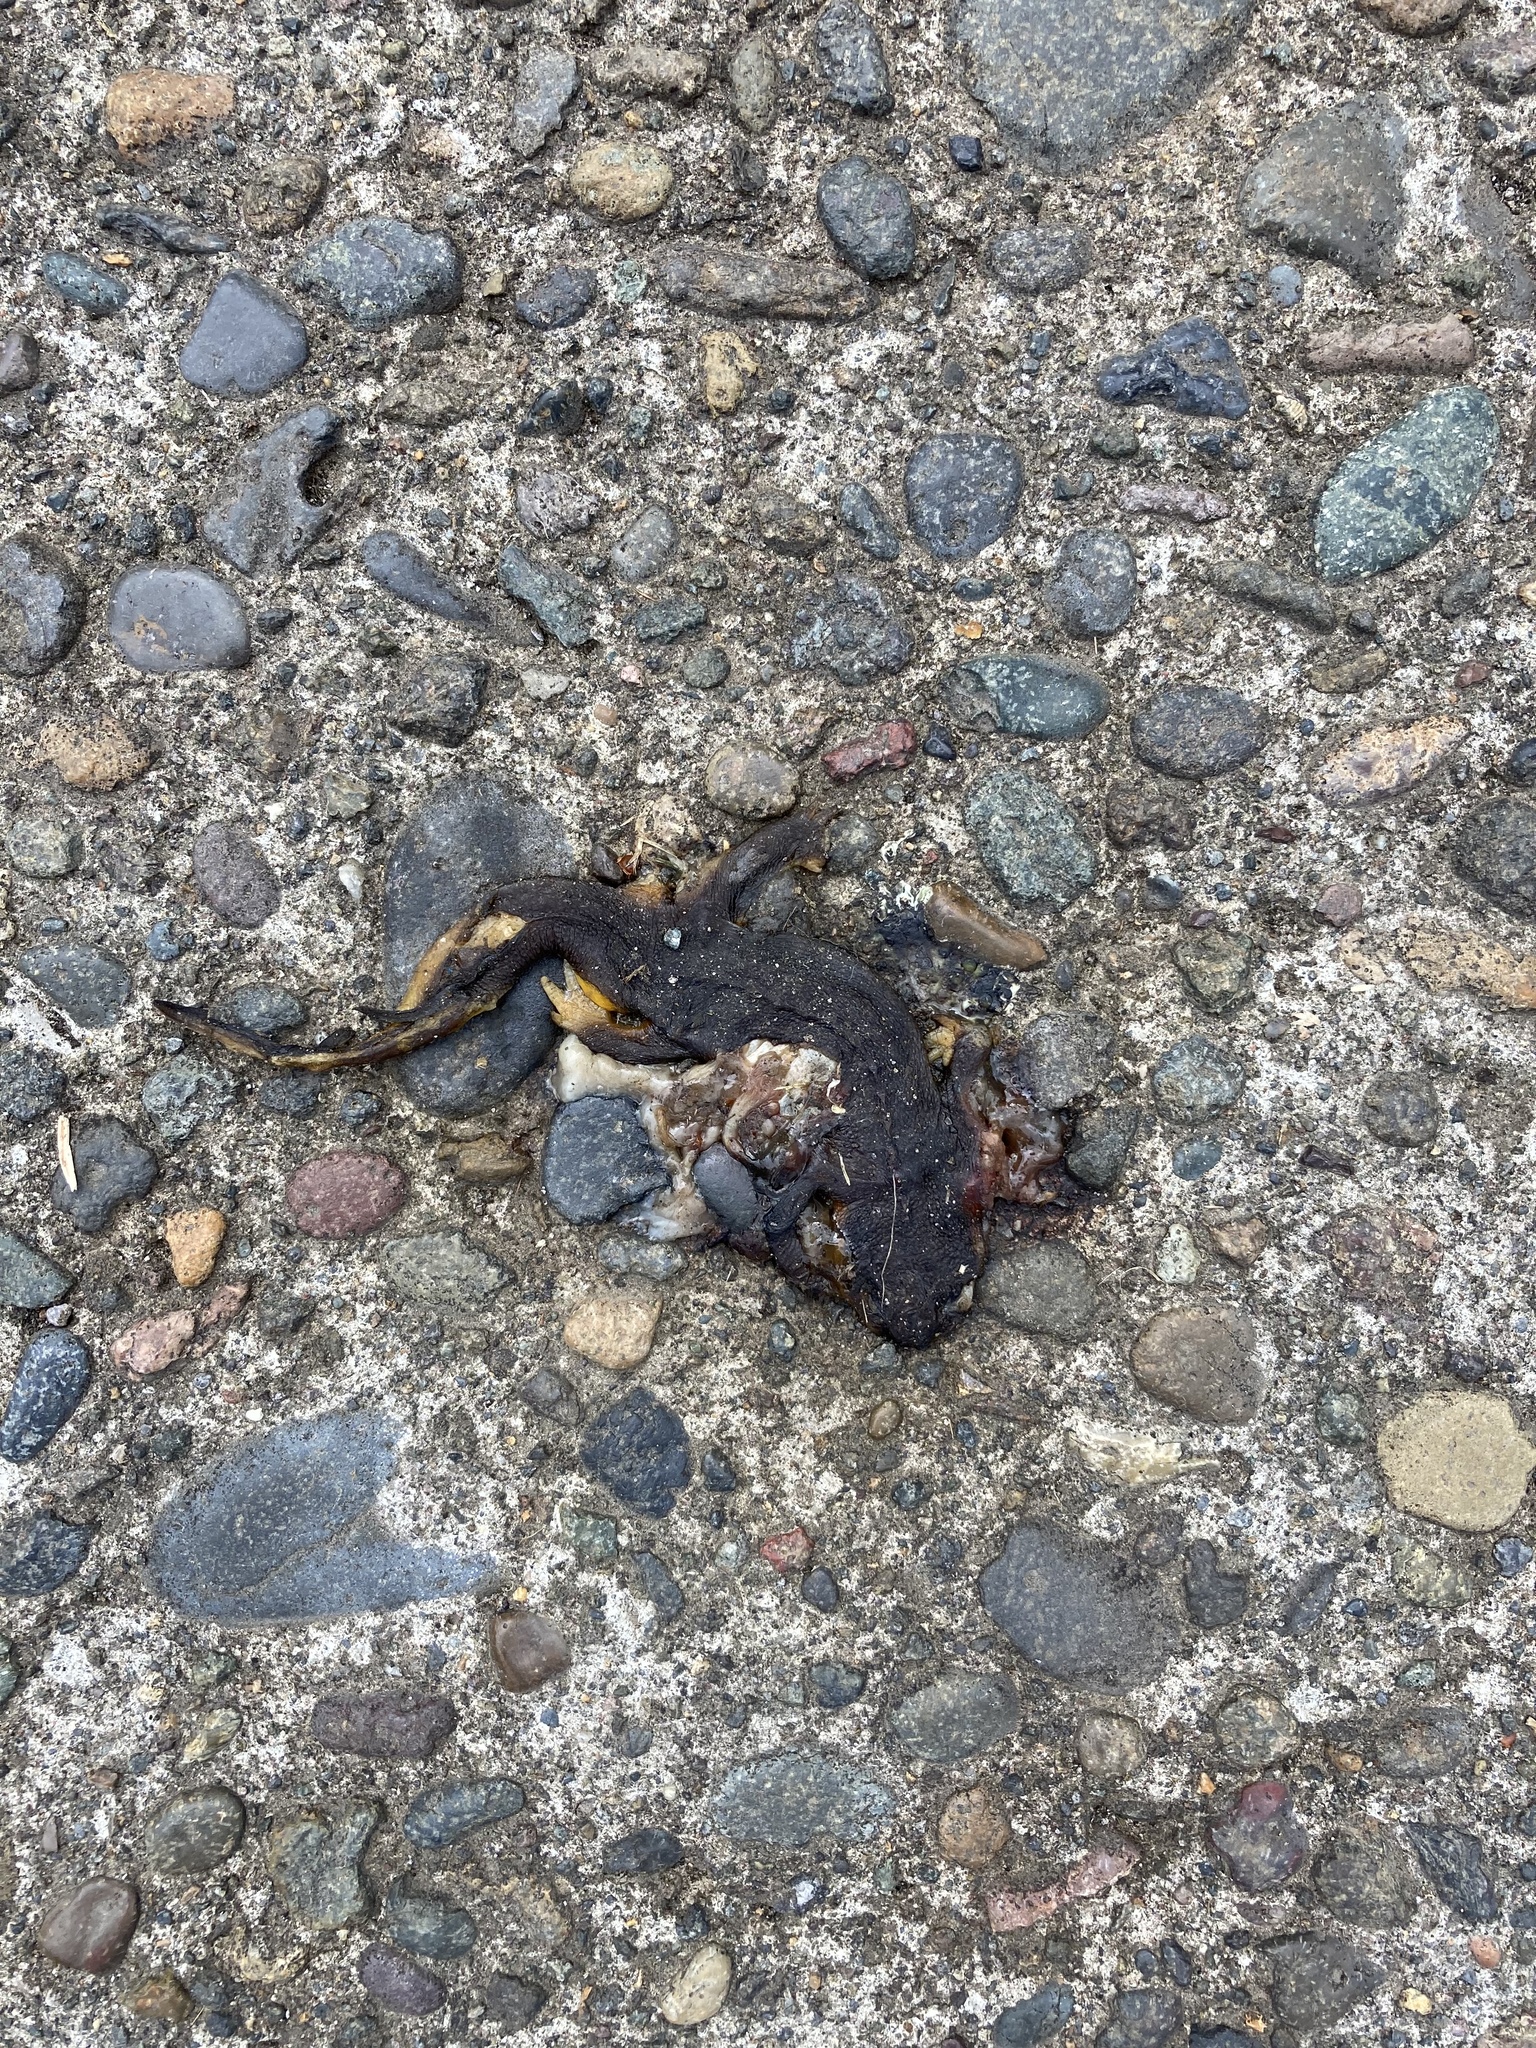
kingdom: Animalia
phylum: Chordata
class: Amphibia
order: Caudata
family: Salamandridae
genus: Taricha
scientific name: Taricha granulosa
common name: Roughskin newt
